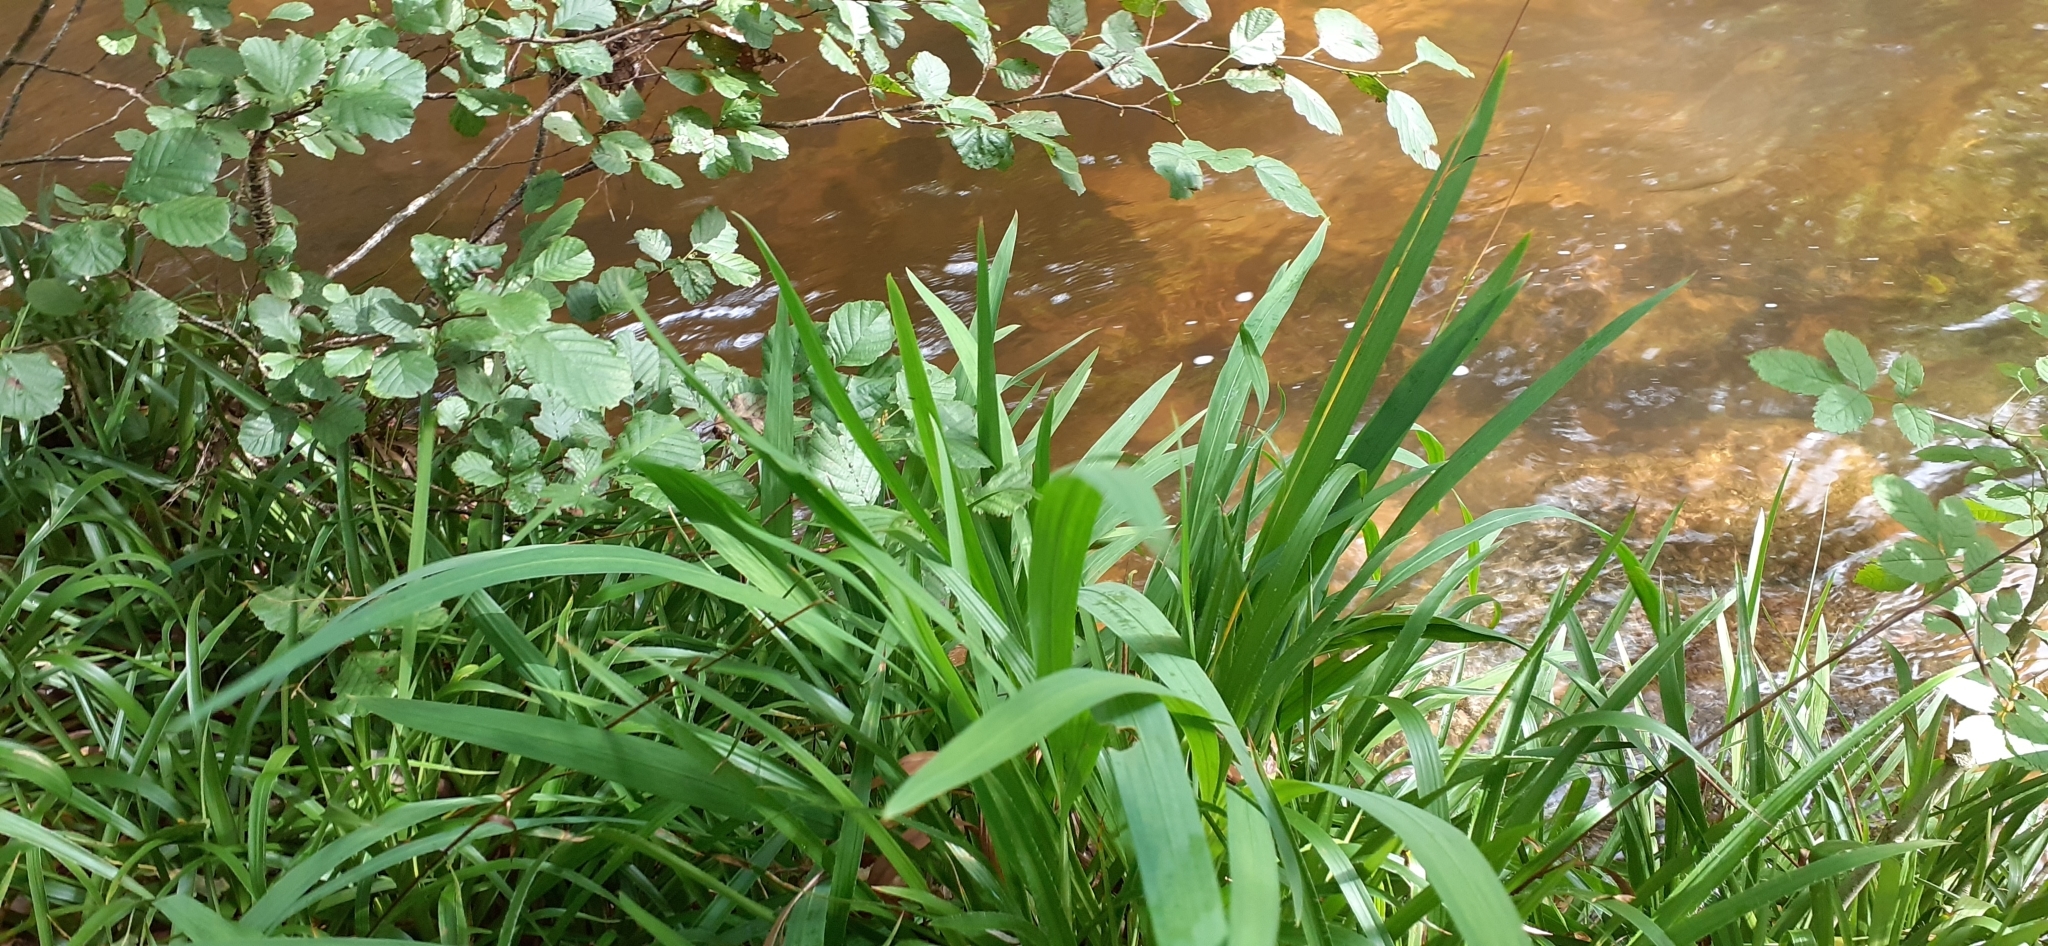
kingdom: Plantae
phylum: Tracheophyta
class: Liliopsida
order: Asparagales
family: Iridaceae
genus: Crocosmia
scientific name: Crocosmia crocosmiiflora
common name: Montbretia
